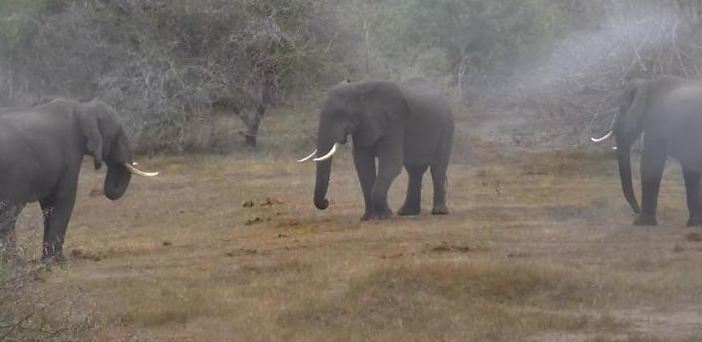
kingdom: Animalia
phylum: Chordata
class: Mammalia
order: Proboscidea
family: Elephantidae
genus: Loxodonta
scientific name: Loxodonta africana
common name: African elephant
